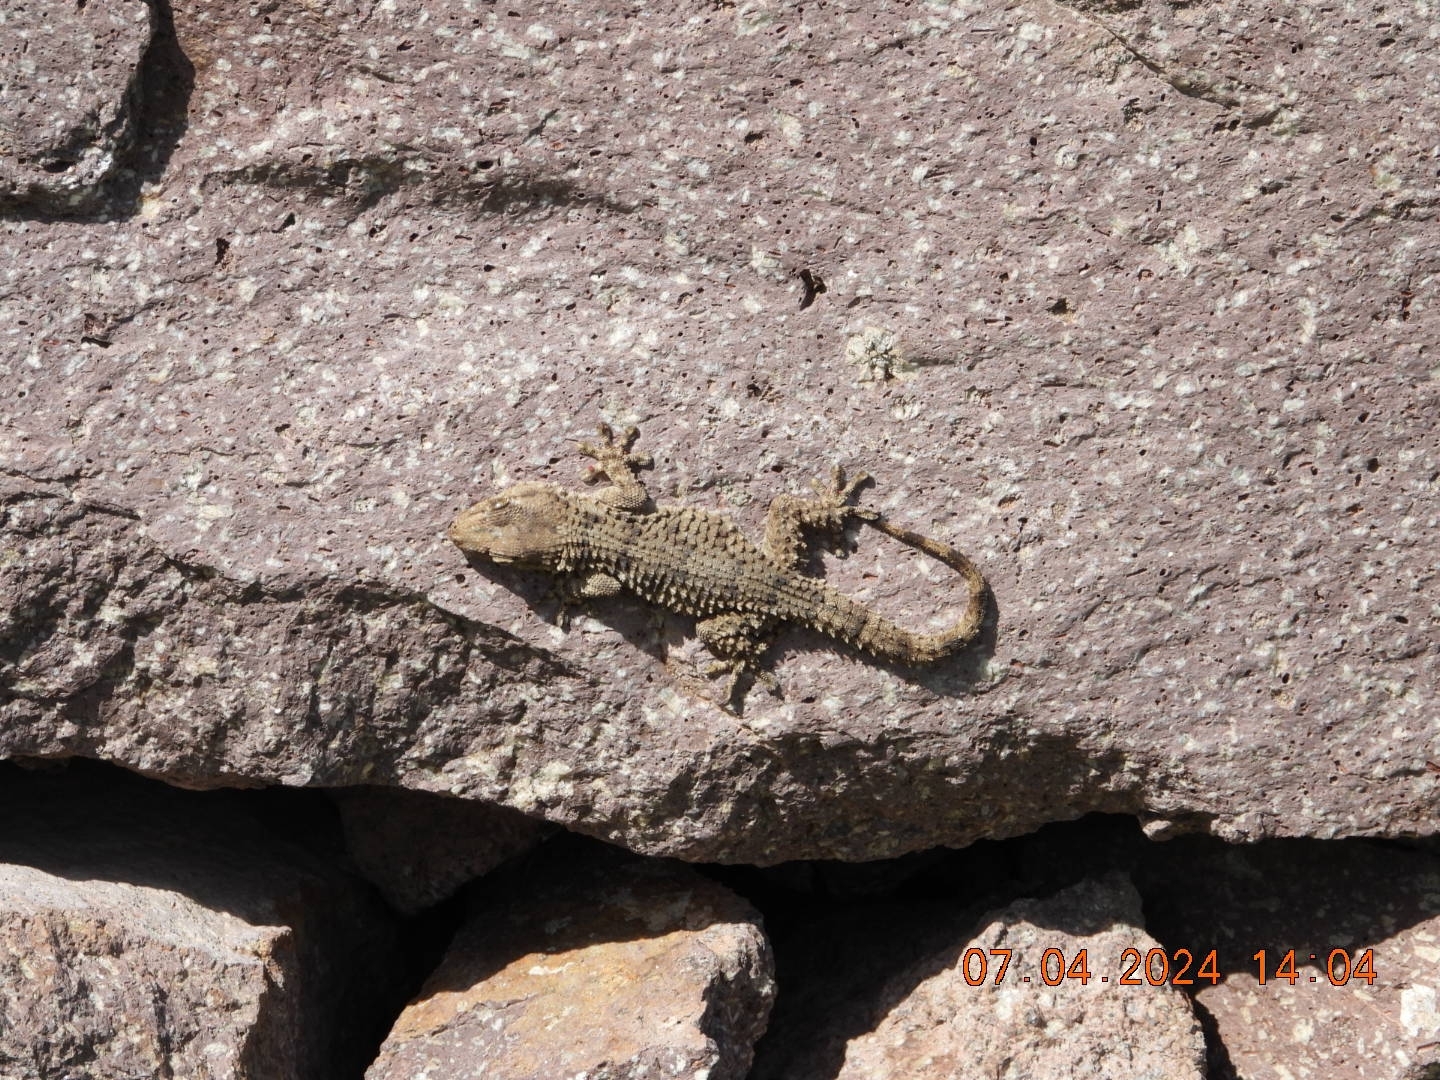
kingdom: Animalia
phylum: Chordata
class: Squamata
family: Phyllodactylidae
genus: Tarentola
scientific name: Tarentola mauritanica
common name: Moorish gecko
